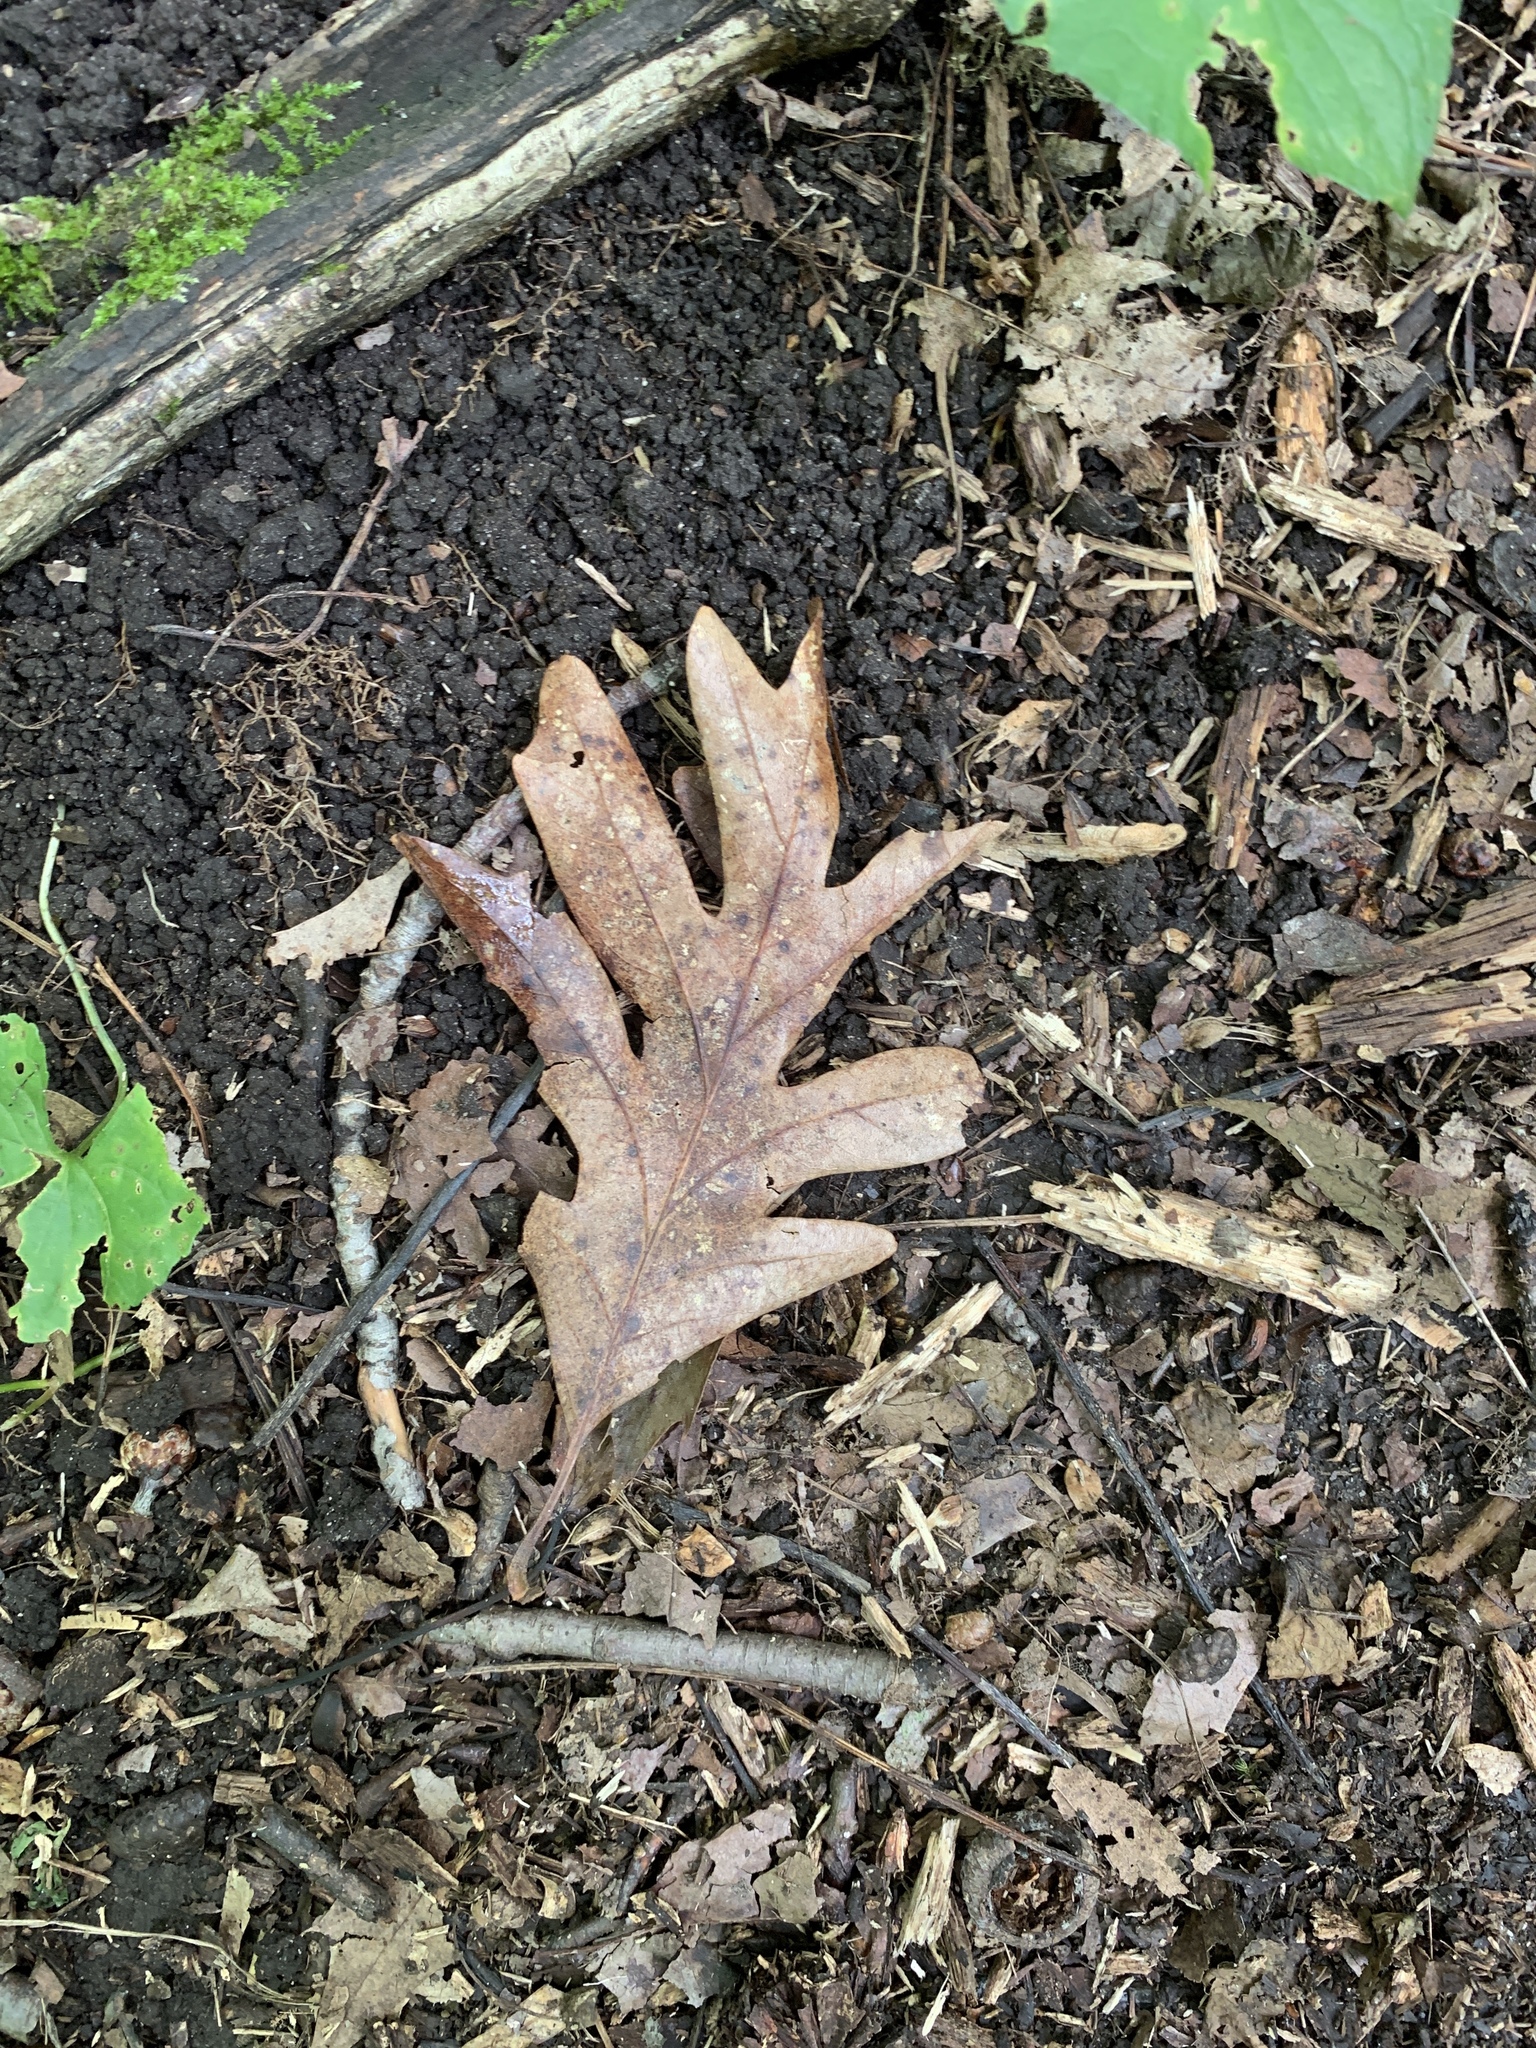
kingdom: Plantae
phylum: Tracheophyta
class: Magnoliopsida
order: Fagales
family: Fagaceae
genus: Quercus
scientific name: Quercus alba
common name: White oak
